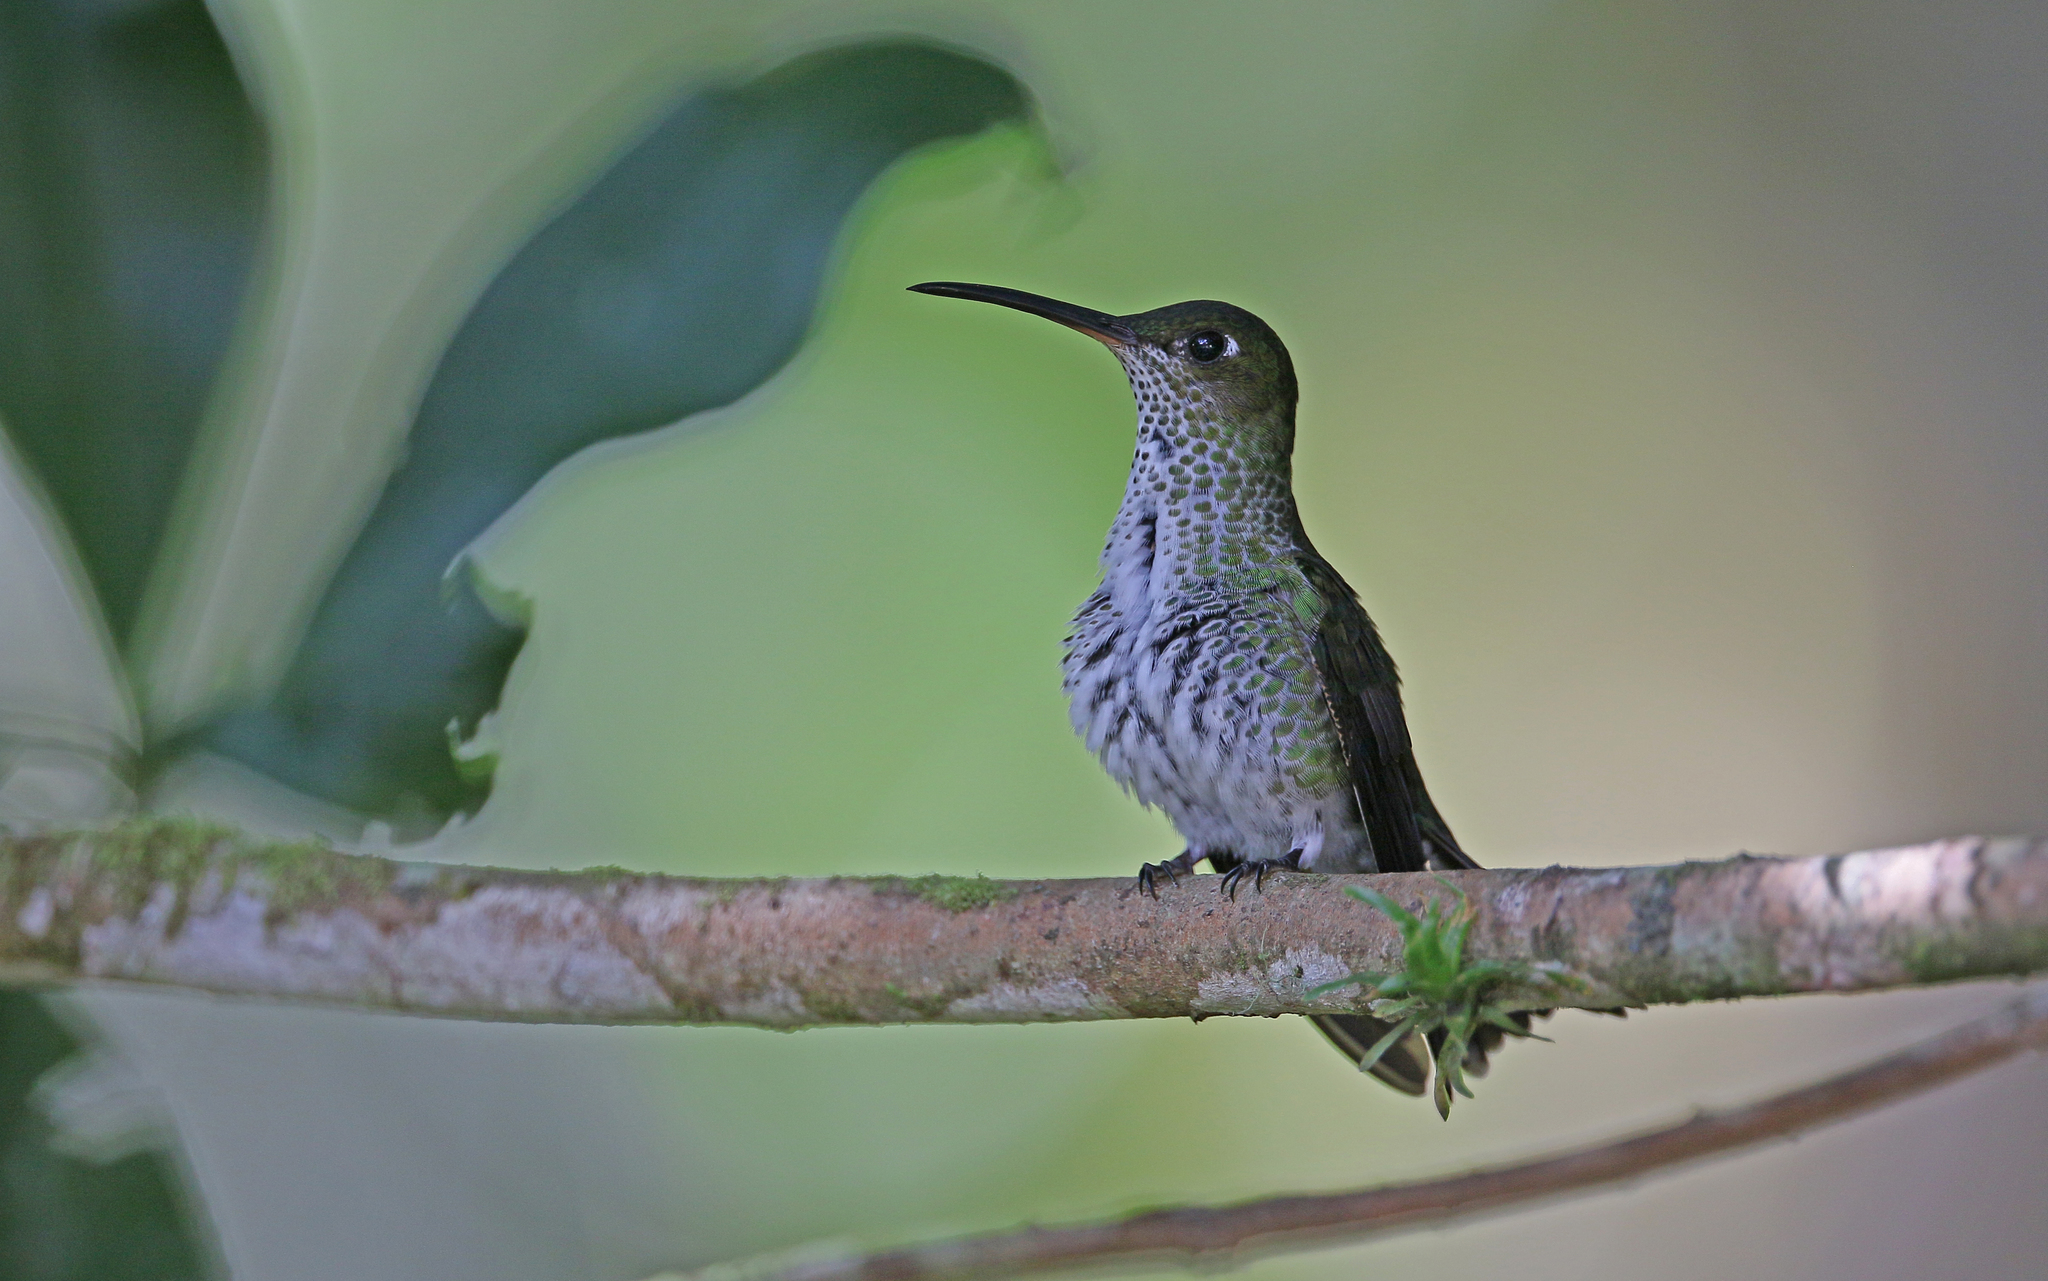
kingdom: Animalia
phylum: Chordata
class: Aves
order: Apodiformes
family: Trochilidae
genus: Taphrospilus
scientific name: Taphrospilus hypostictus
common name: Many-spotted hummingbird
